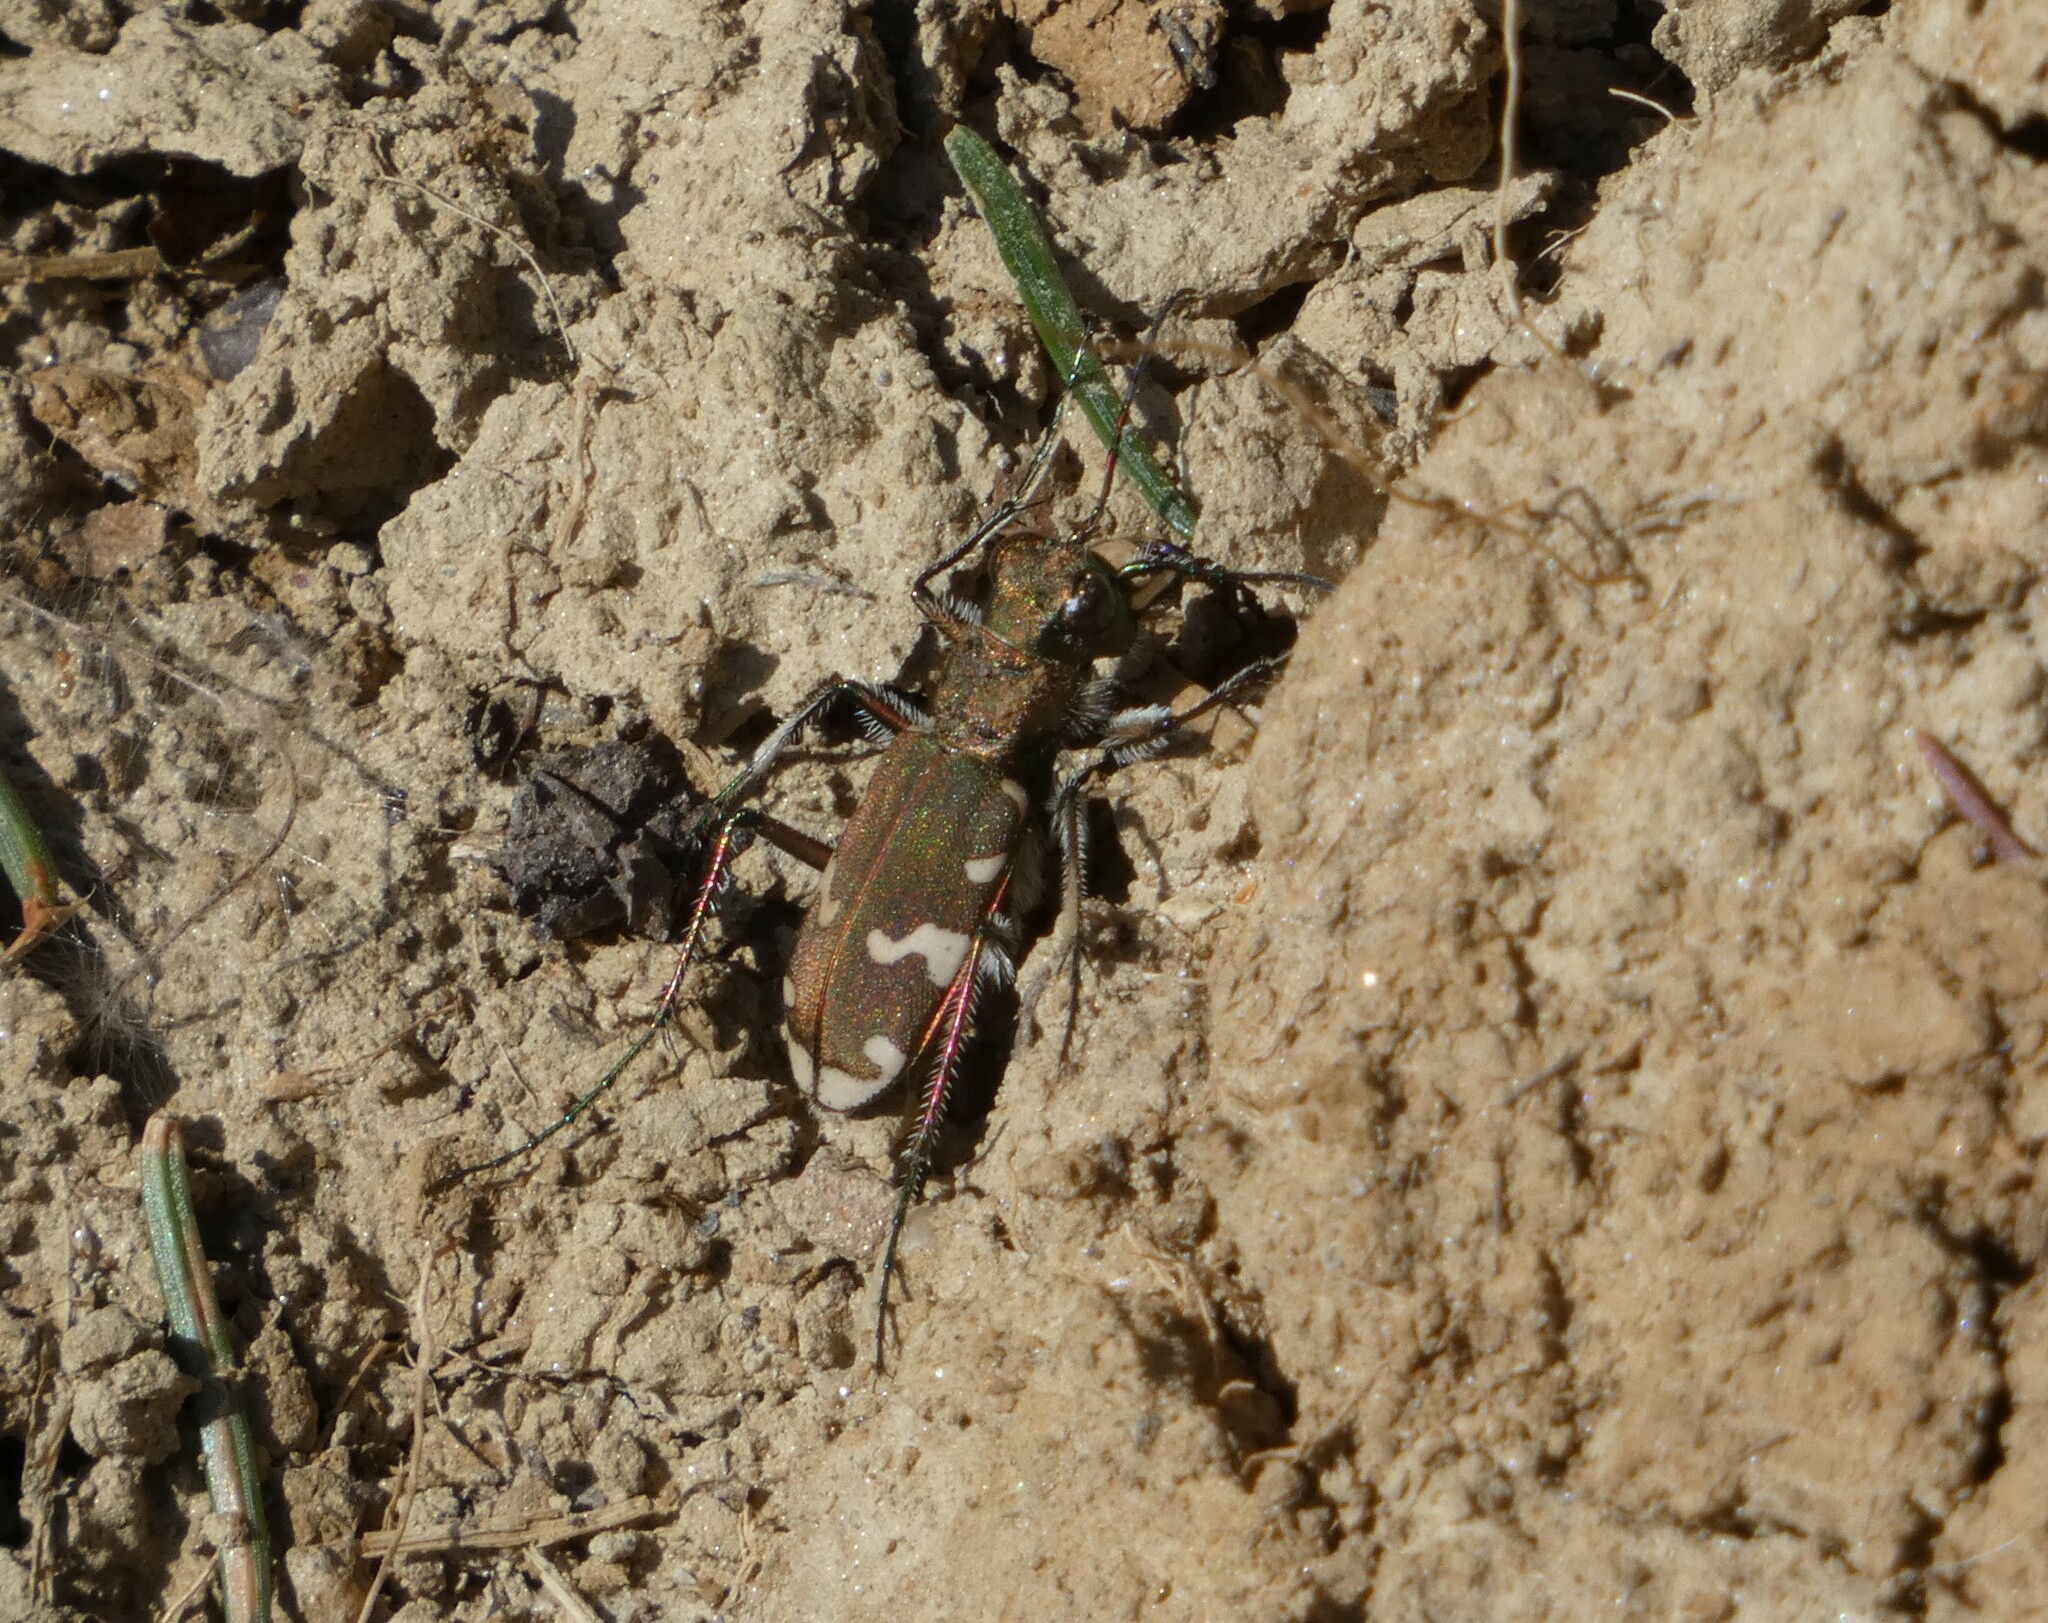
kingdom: Animalia
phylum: Arthropoda
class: Insecta
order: Coleoptera
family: Carabidae
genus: Cicindela
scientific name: Cicindela sylvicola
